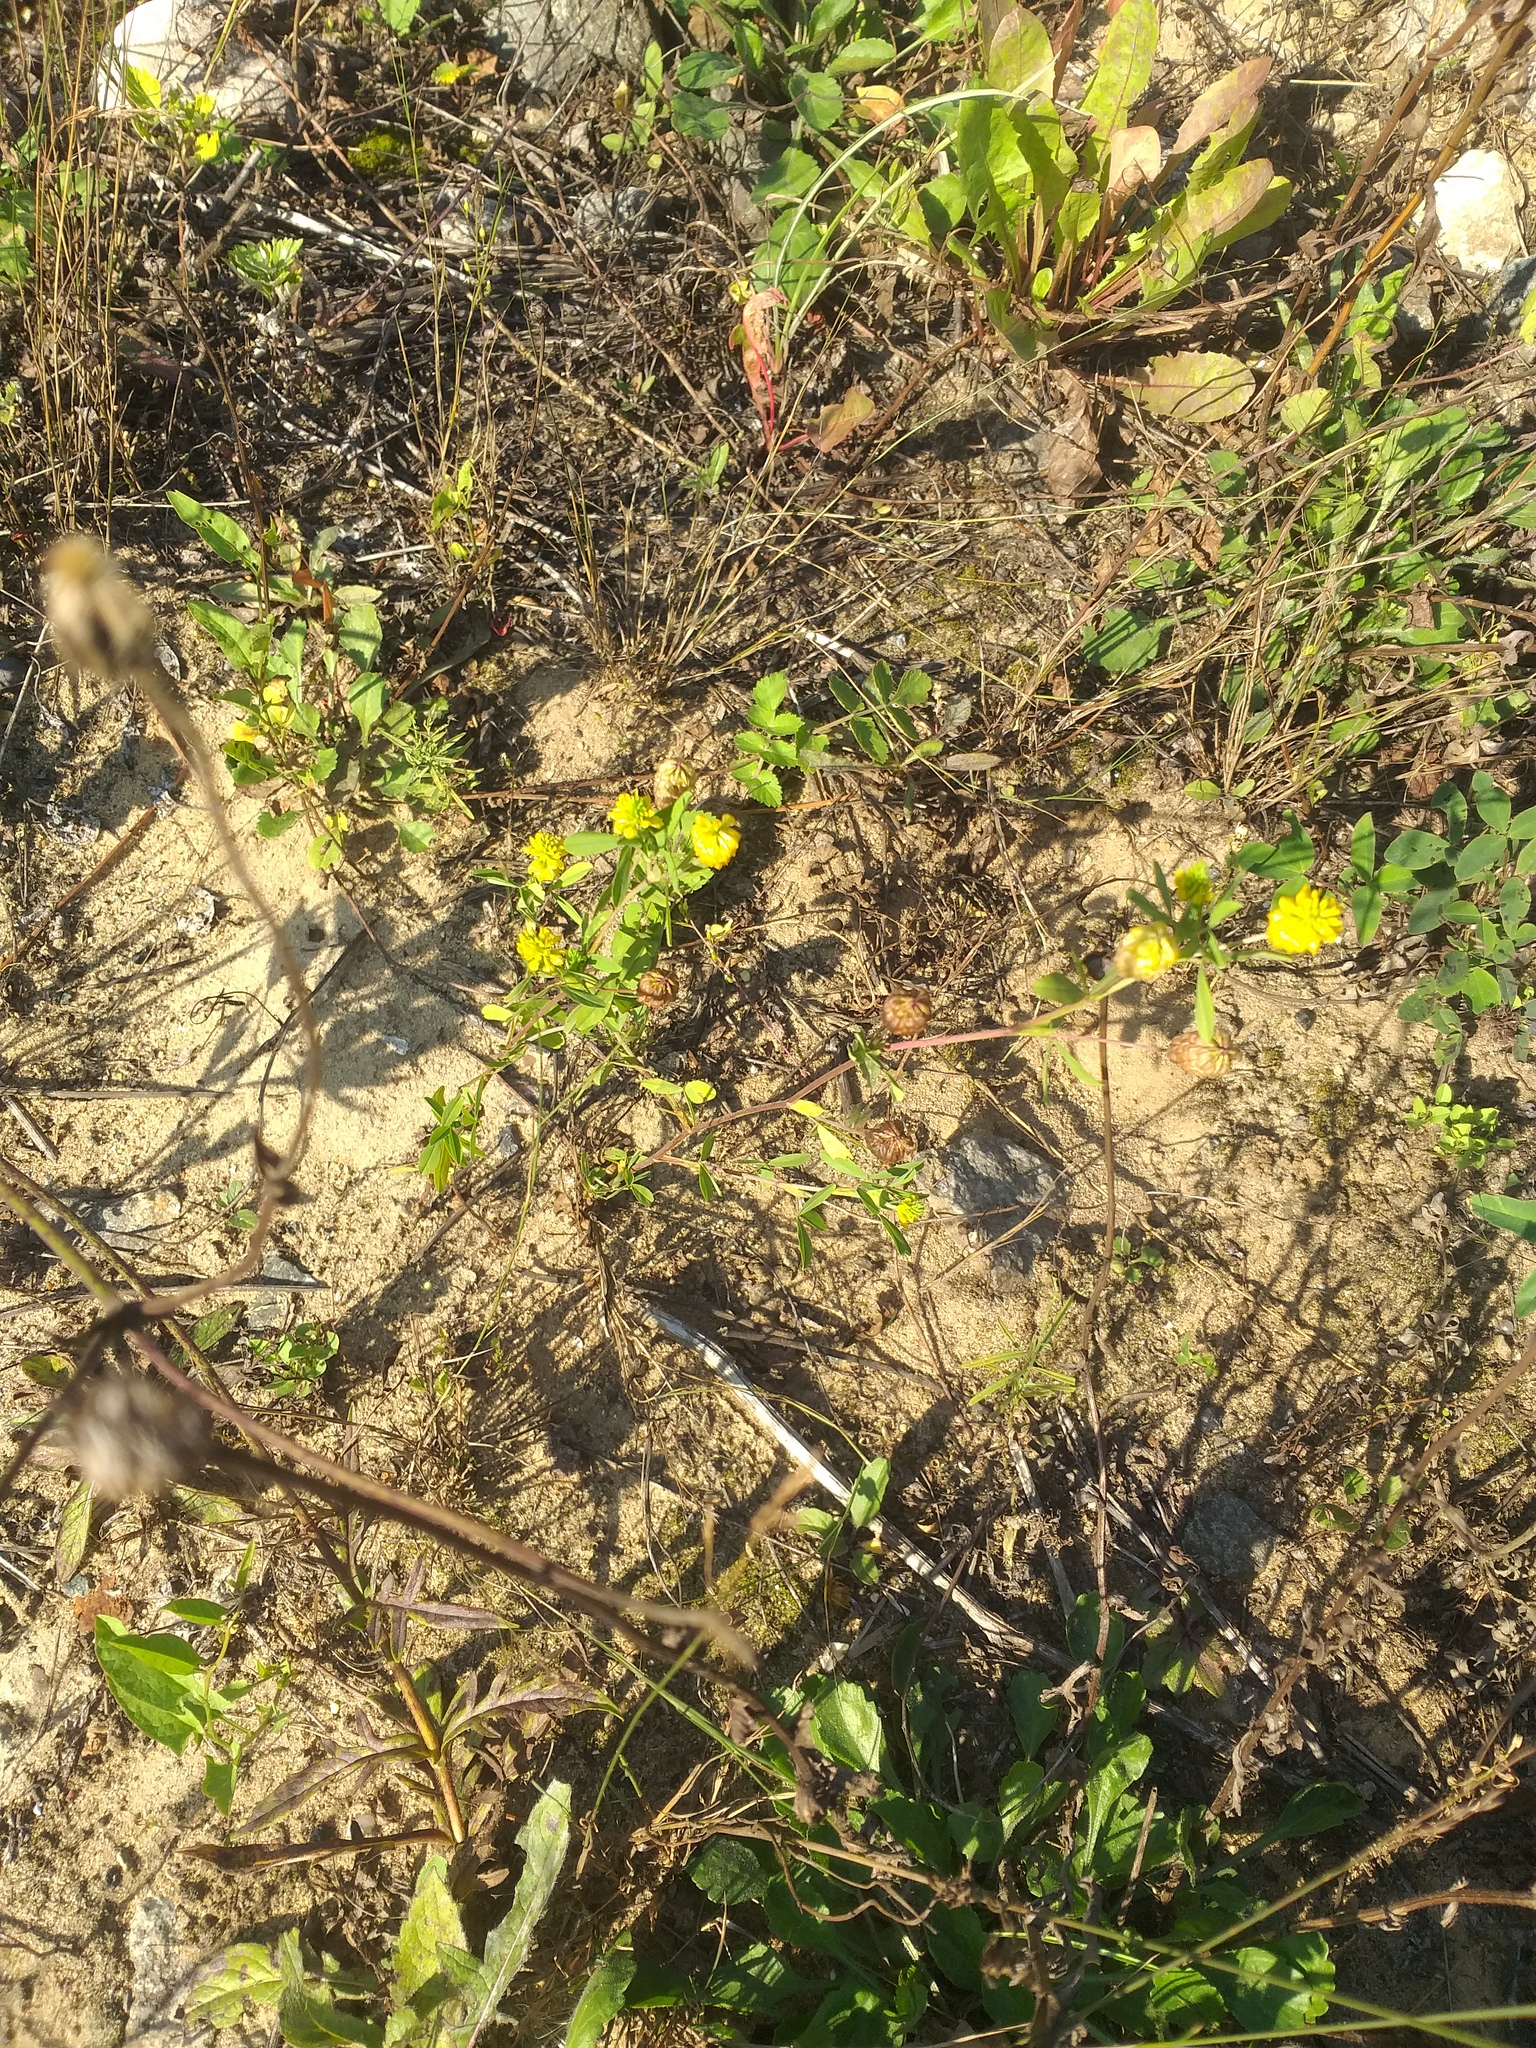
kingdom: Plantae
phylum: Tracheophyta
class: Magnoliopsida
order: Fabales
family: Fabaceae
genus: Trifolium
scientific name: Trifolium aureum
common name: Golden clover
